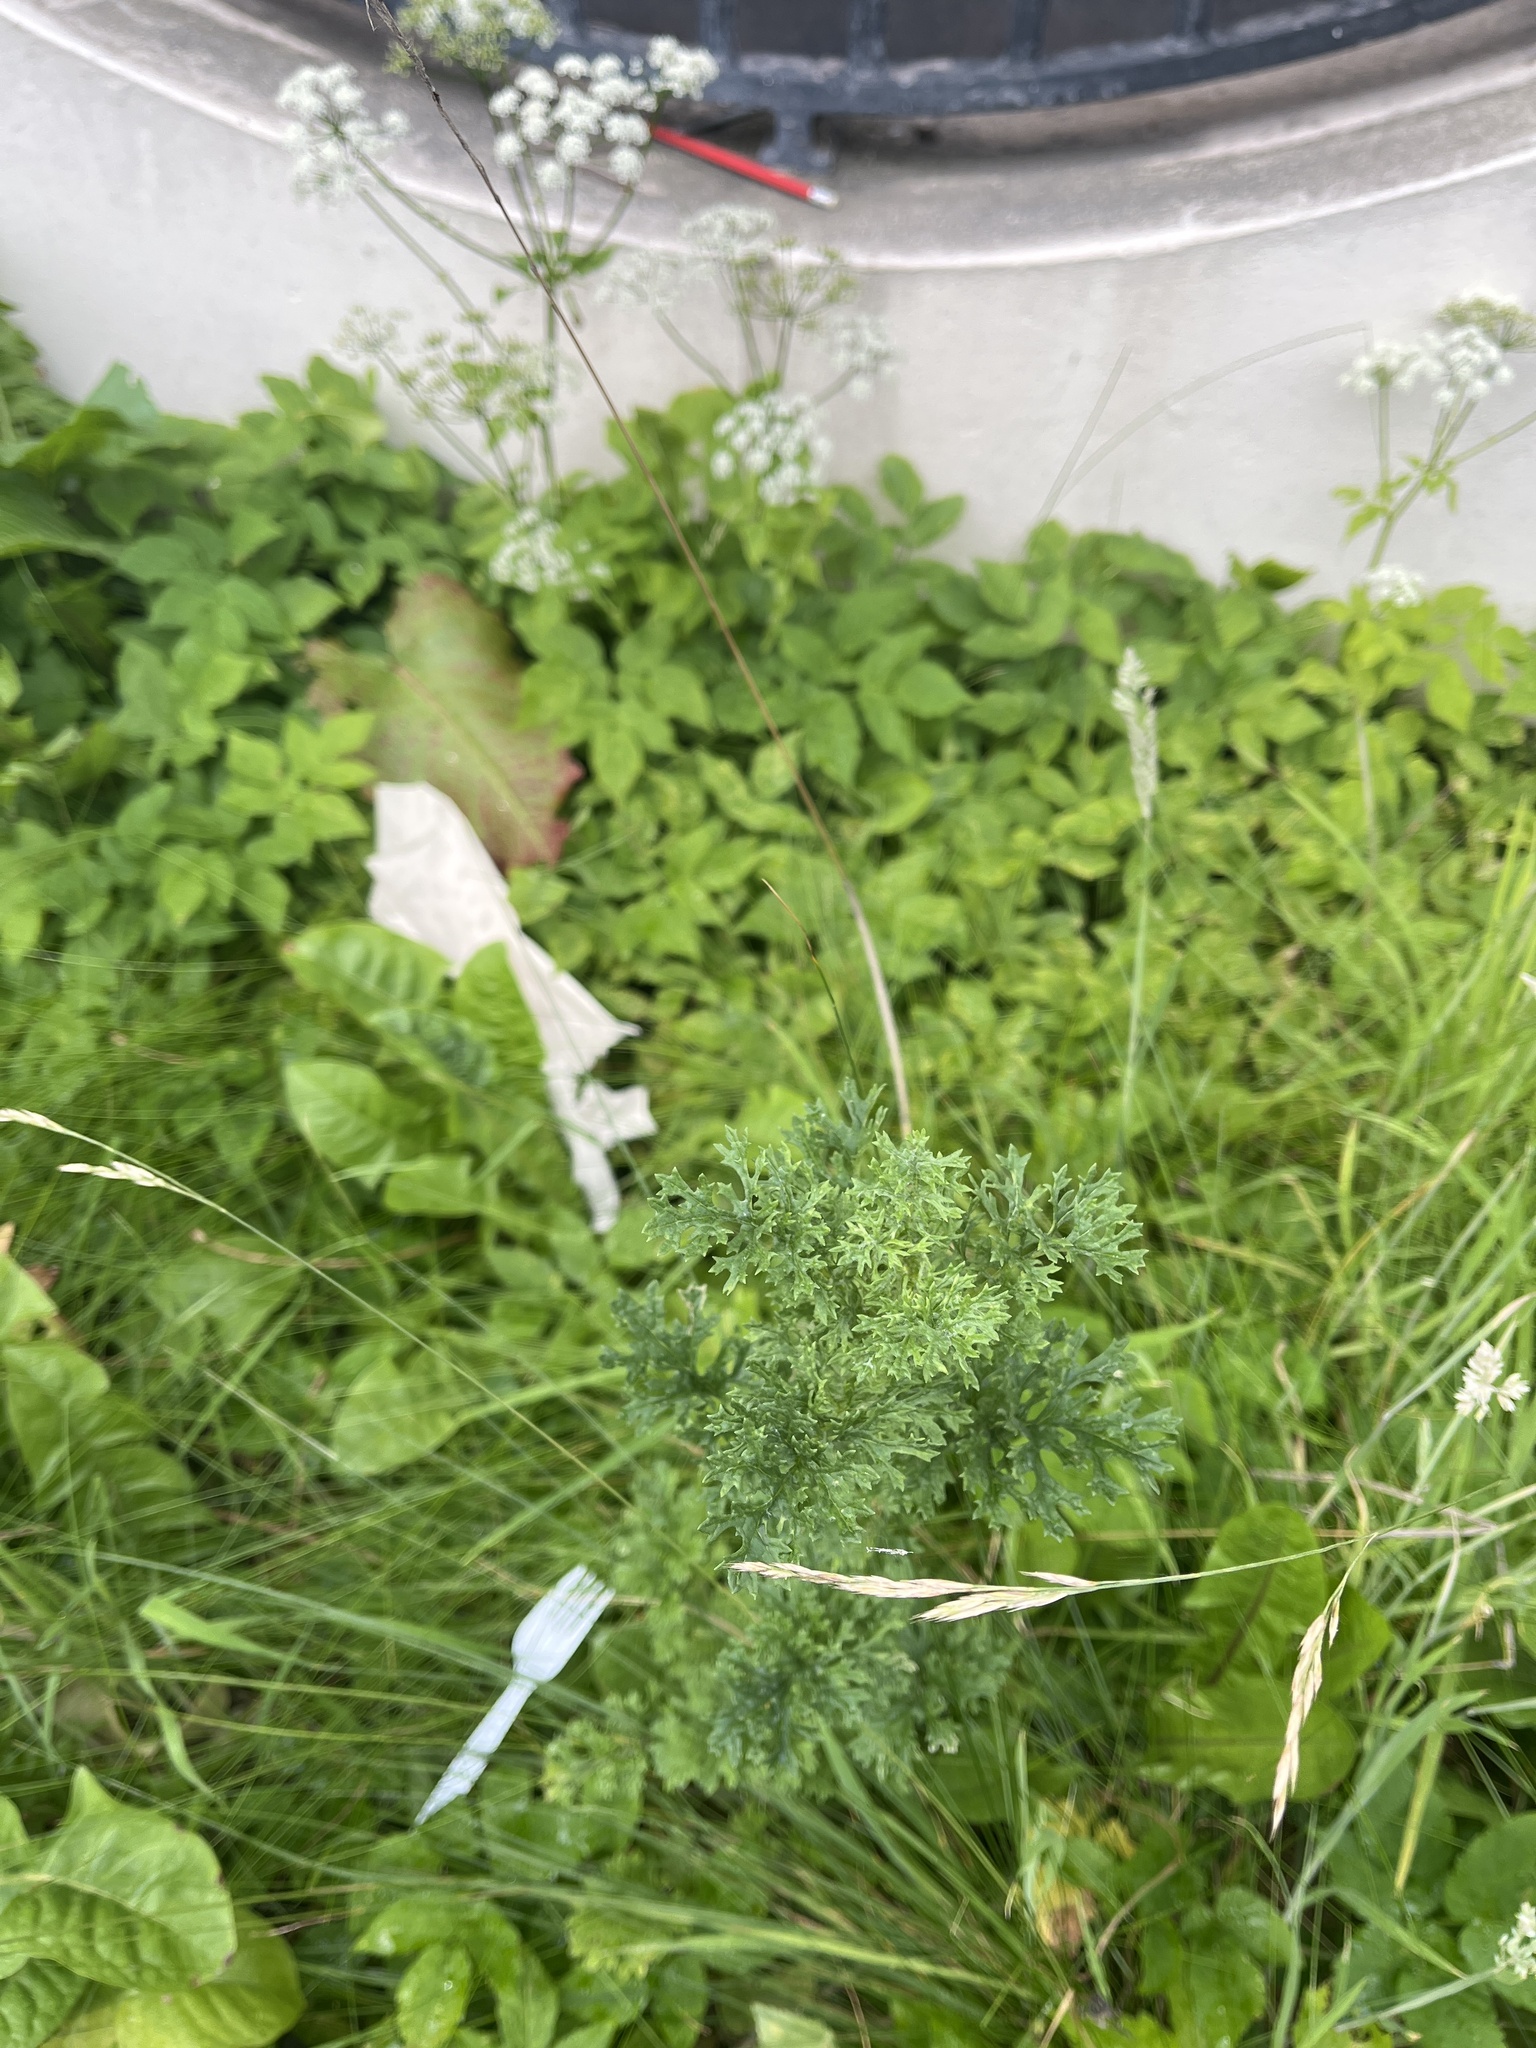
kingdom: Plantae
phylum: Tracheophyta
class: Magnoliopsida
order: Asterales
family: Asteraceae
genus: Jacobaea
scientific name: Jacobaea vulgaris
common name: Stinking willie
